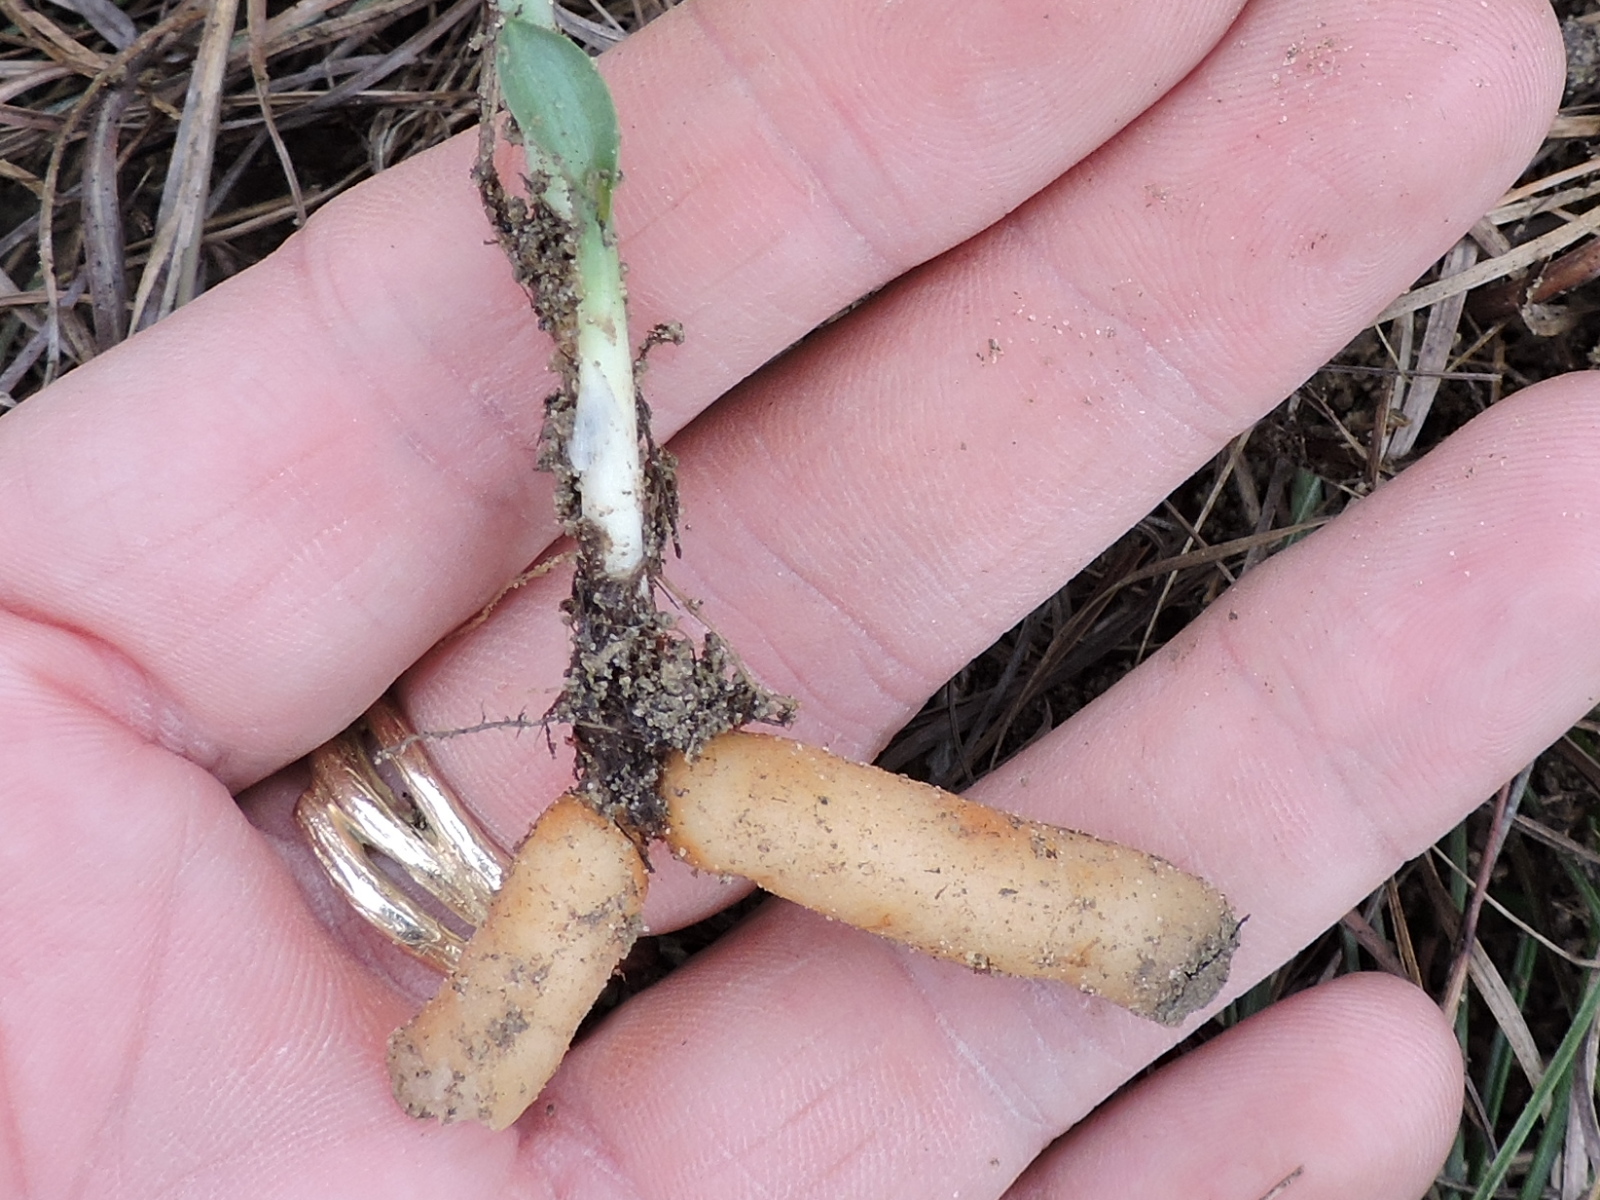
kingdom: Plantae
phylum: Tracheophyta
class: Liliopsida
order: Asparagales
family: Orchidaceae
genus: Spiranthes
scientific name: Spiranthes magnicamporum
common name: Great plains ladies'-tresses
